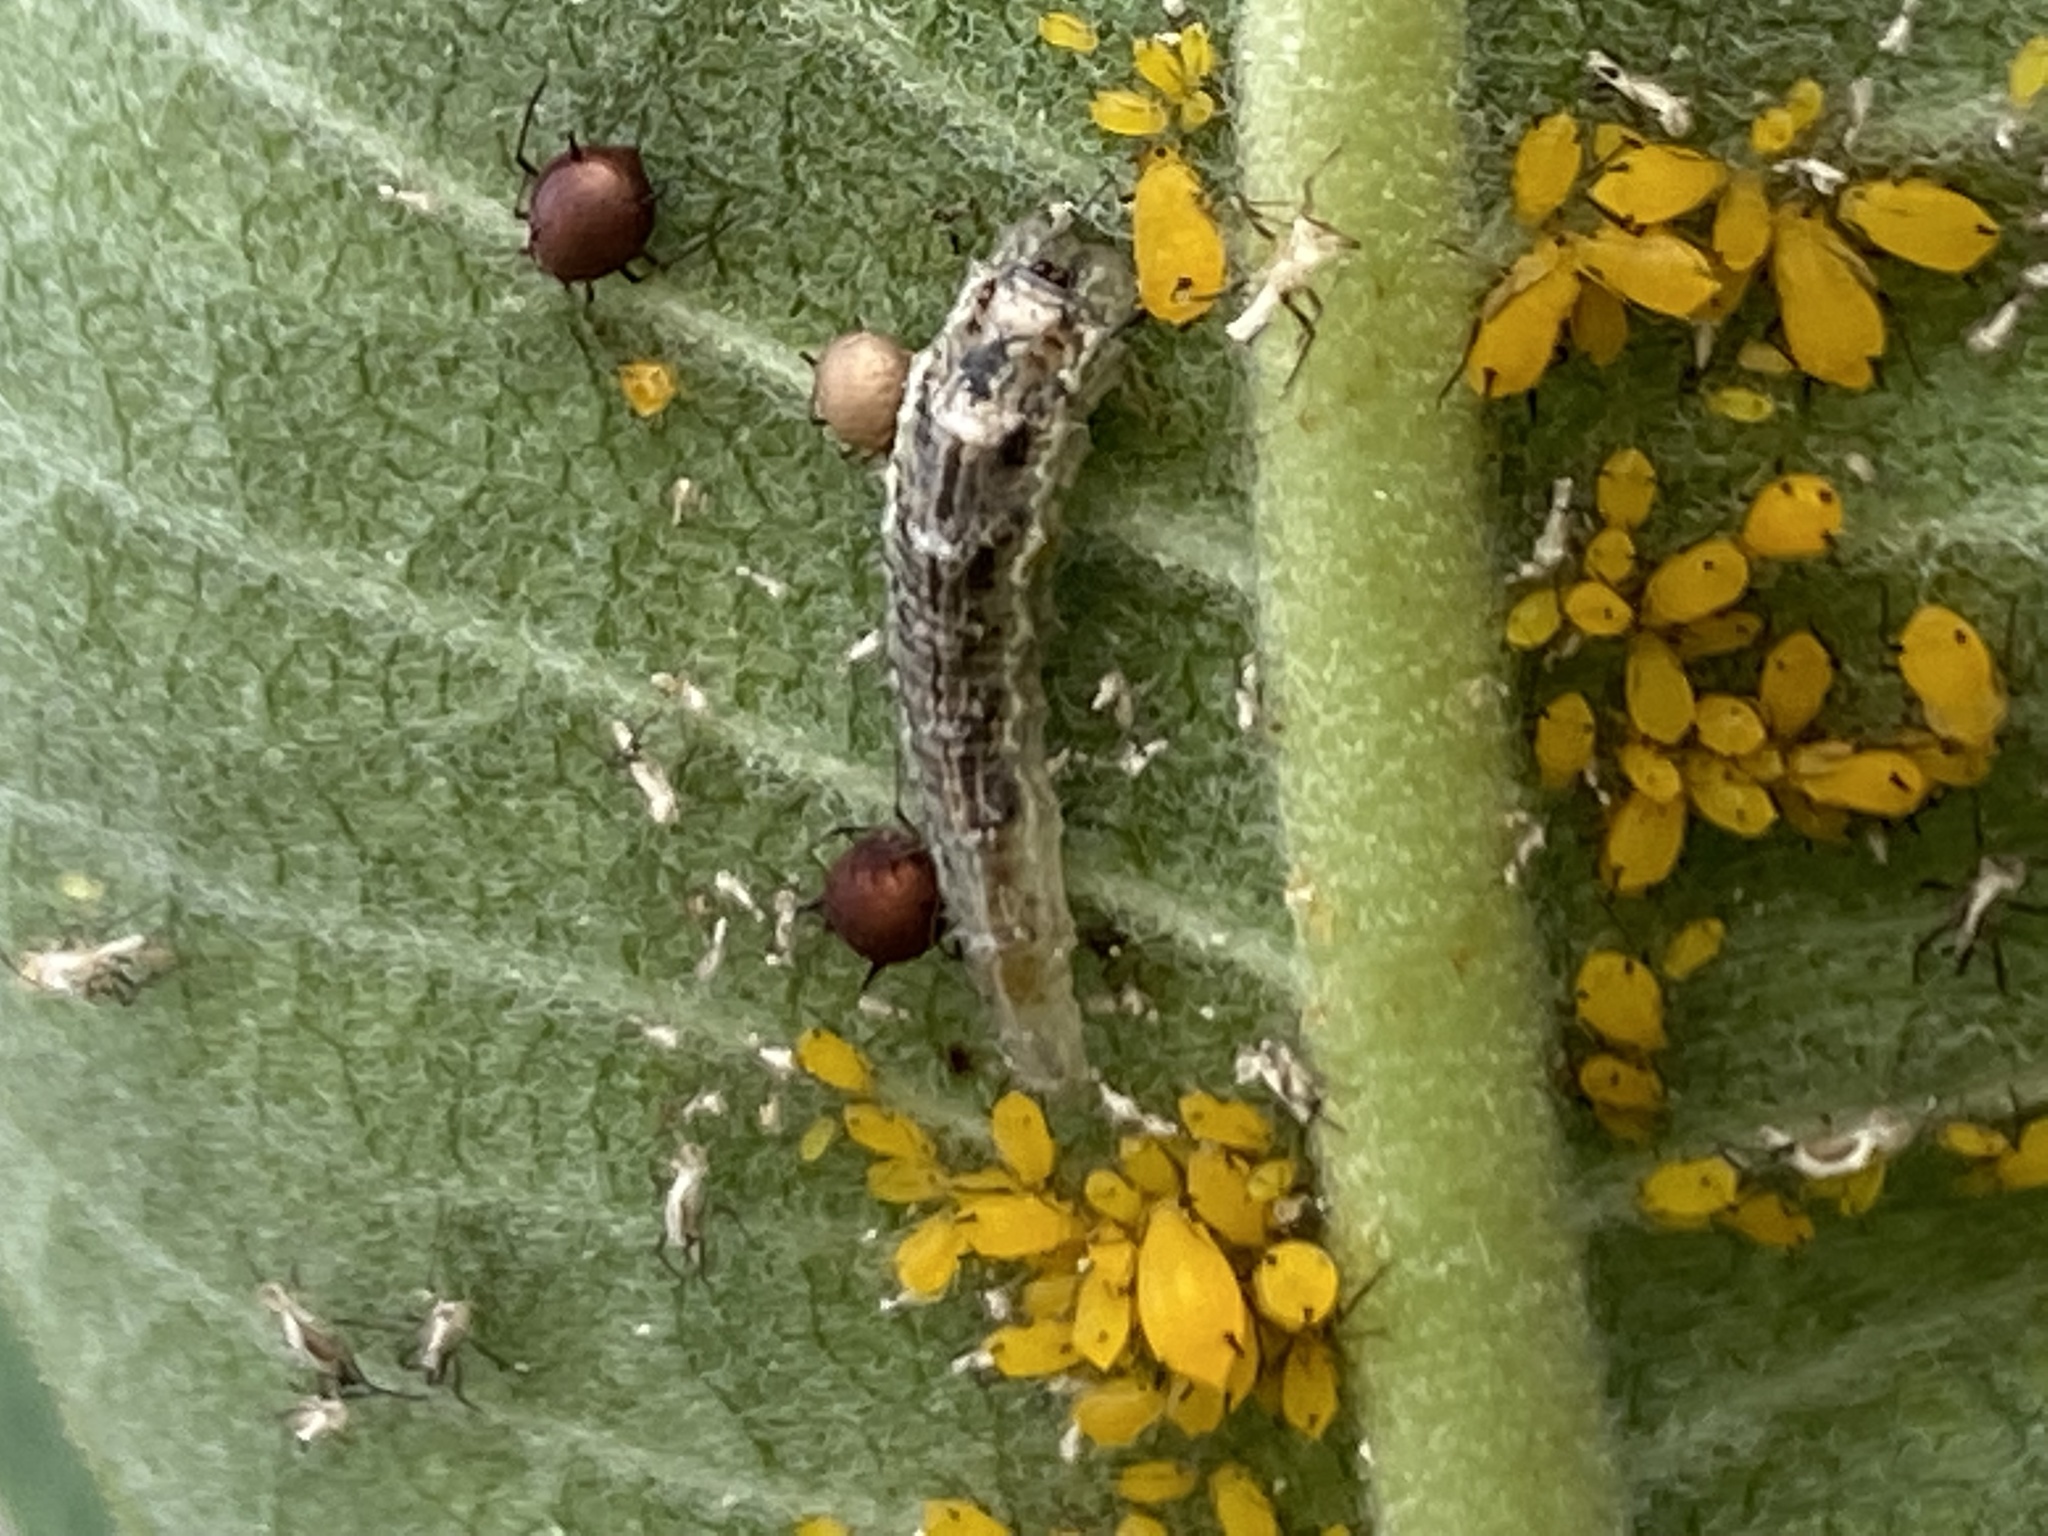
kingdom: Animalia
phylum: Arthropoda
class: Insecta
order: Hemiptera
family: Aphididae
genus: Aphis
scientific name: Aphis nerii
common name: Oleander aphid
